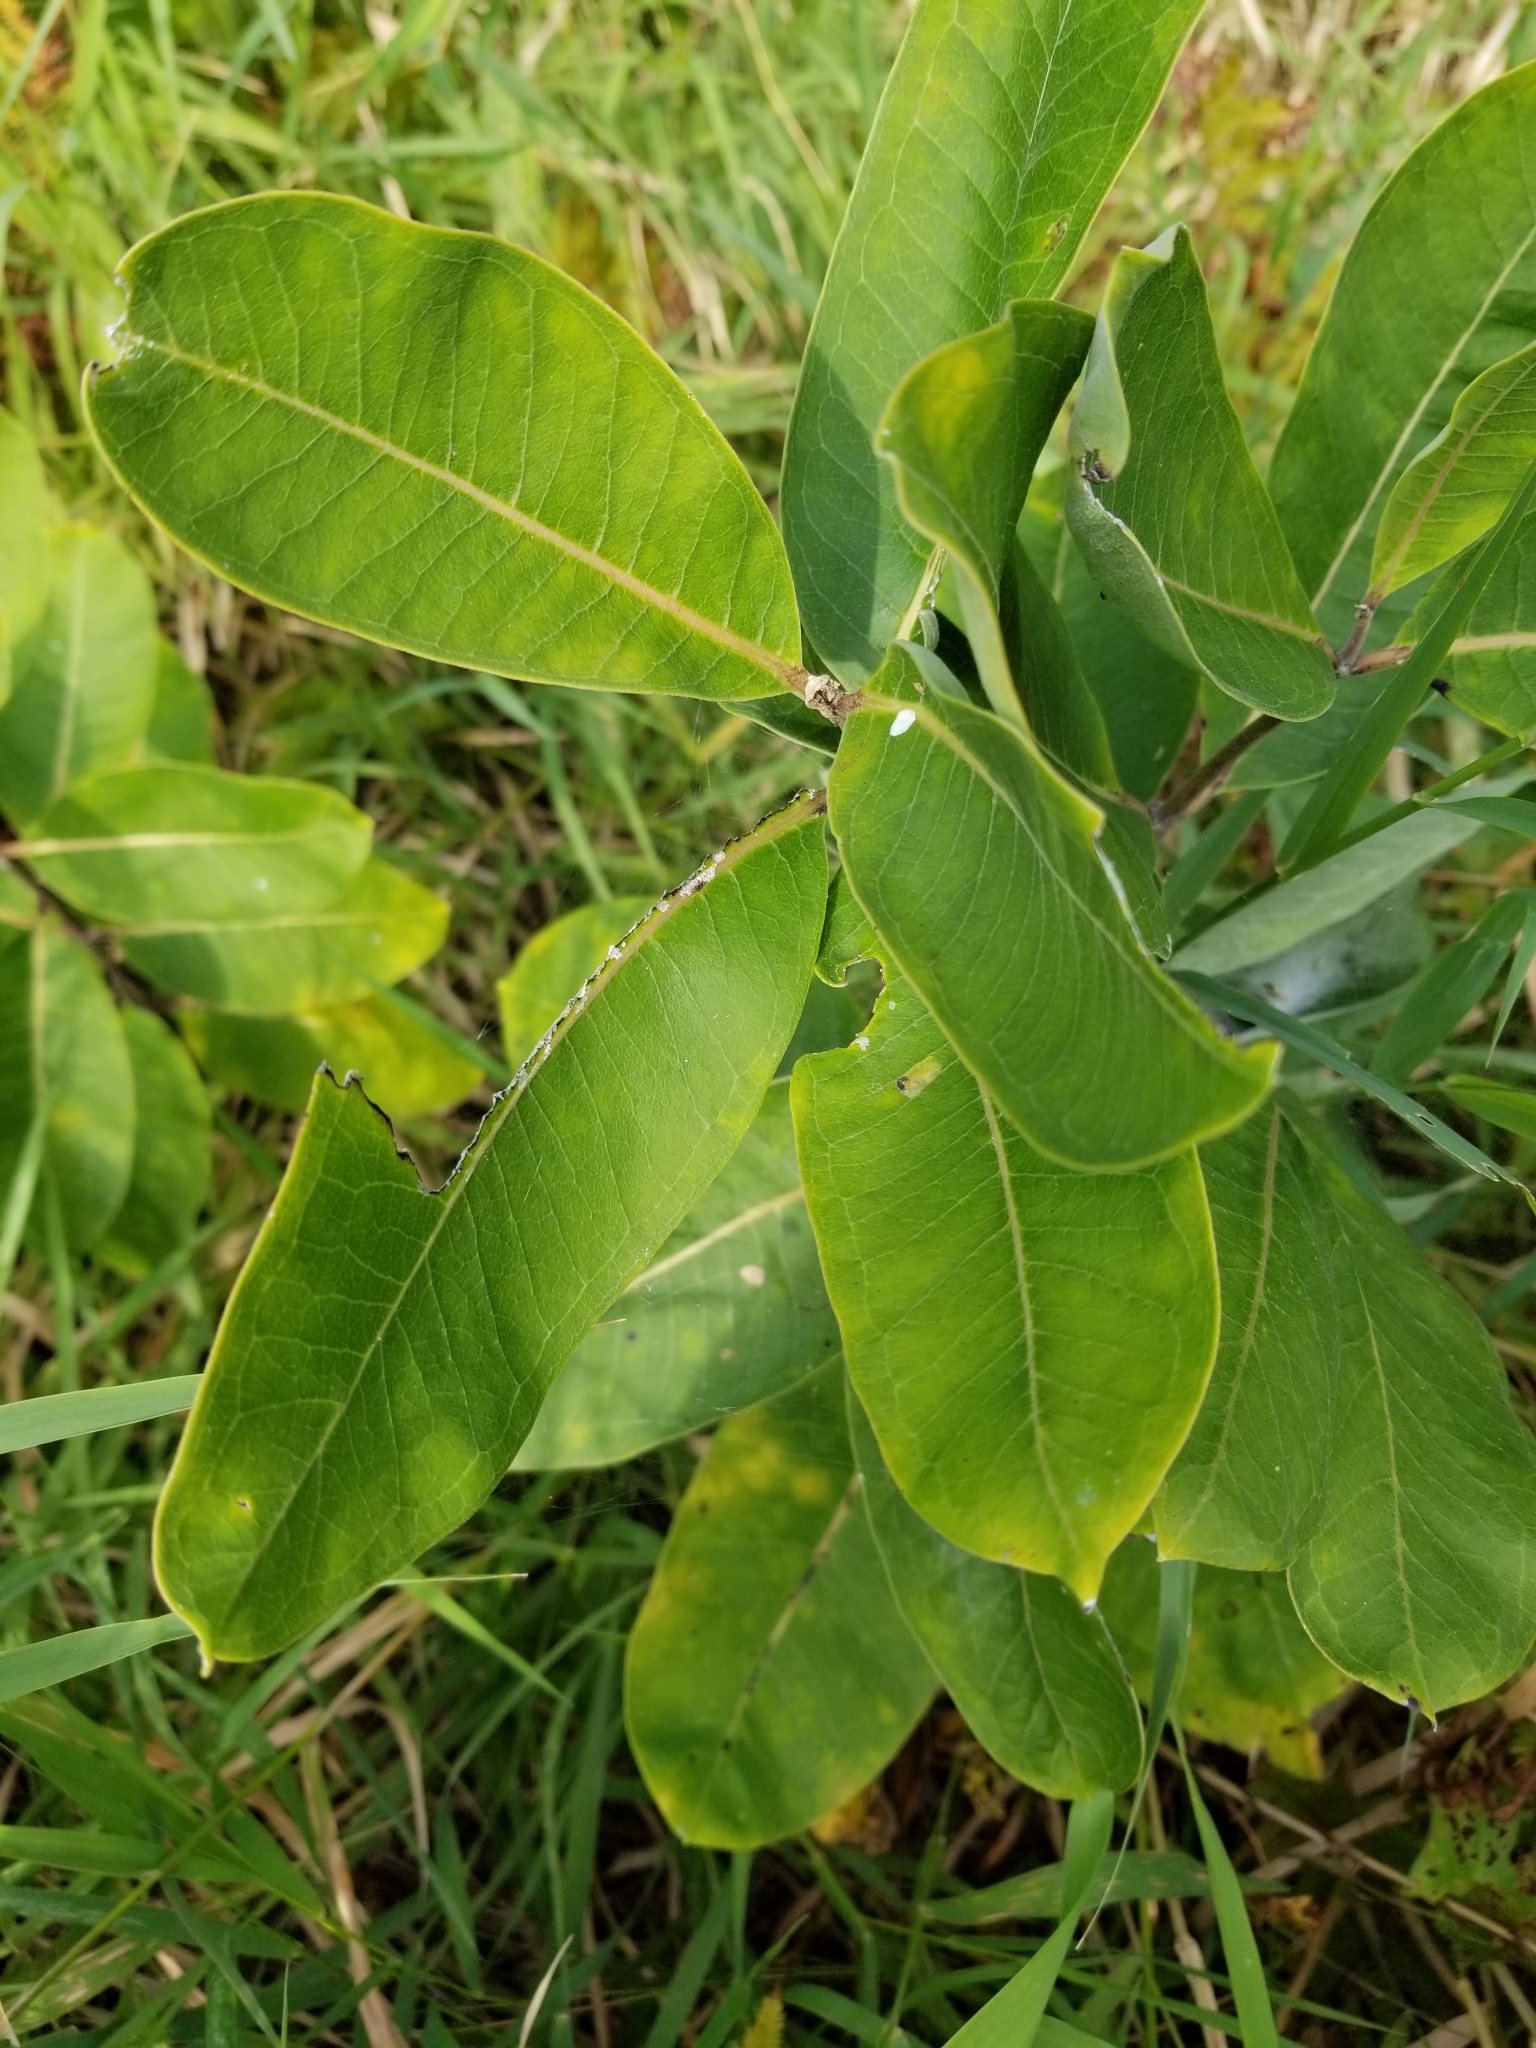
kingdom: Plantae
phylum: Tracheophyta
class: Magnoliopsida
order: Gentianales
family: Apocynaceae
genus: Asclepias
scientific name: Asclepias syriaca
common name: Common milkweed
